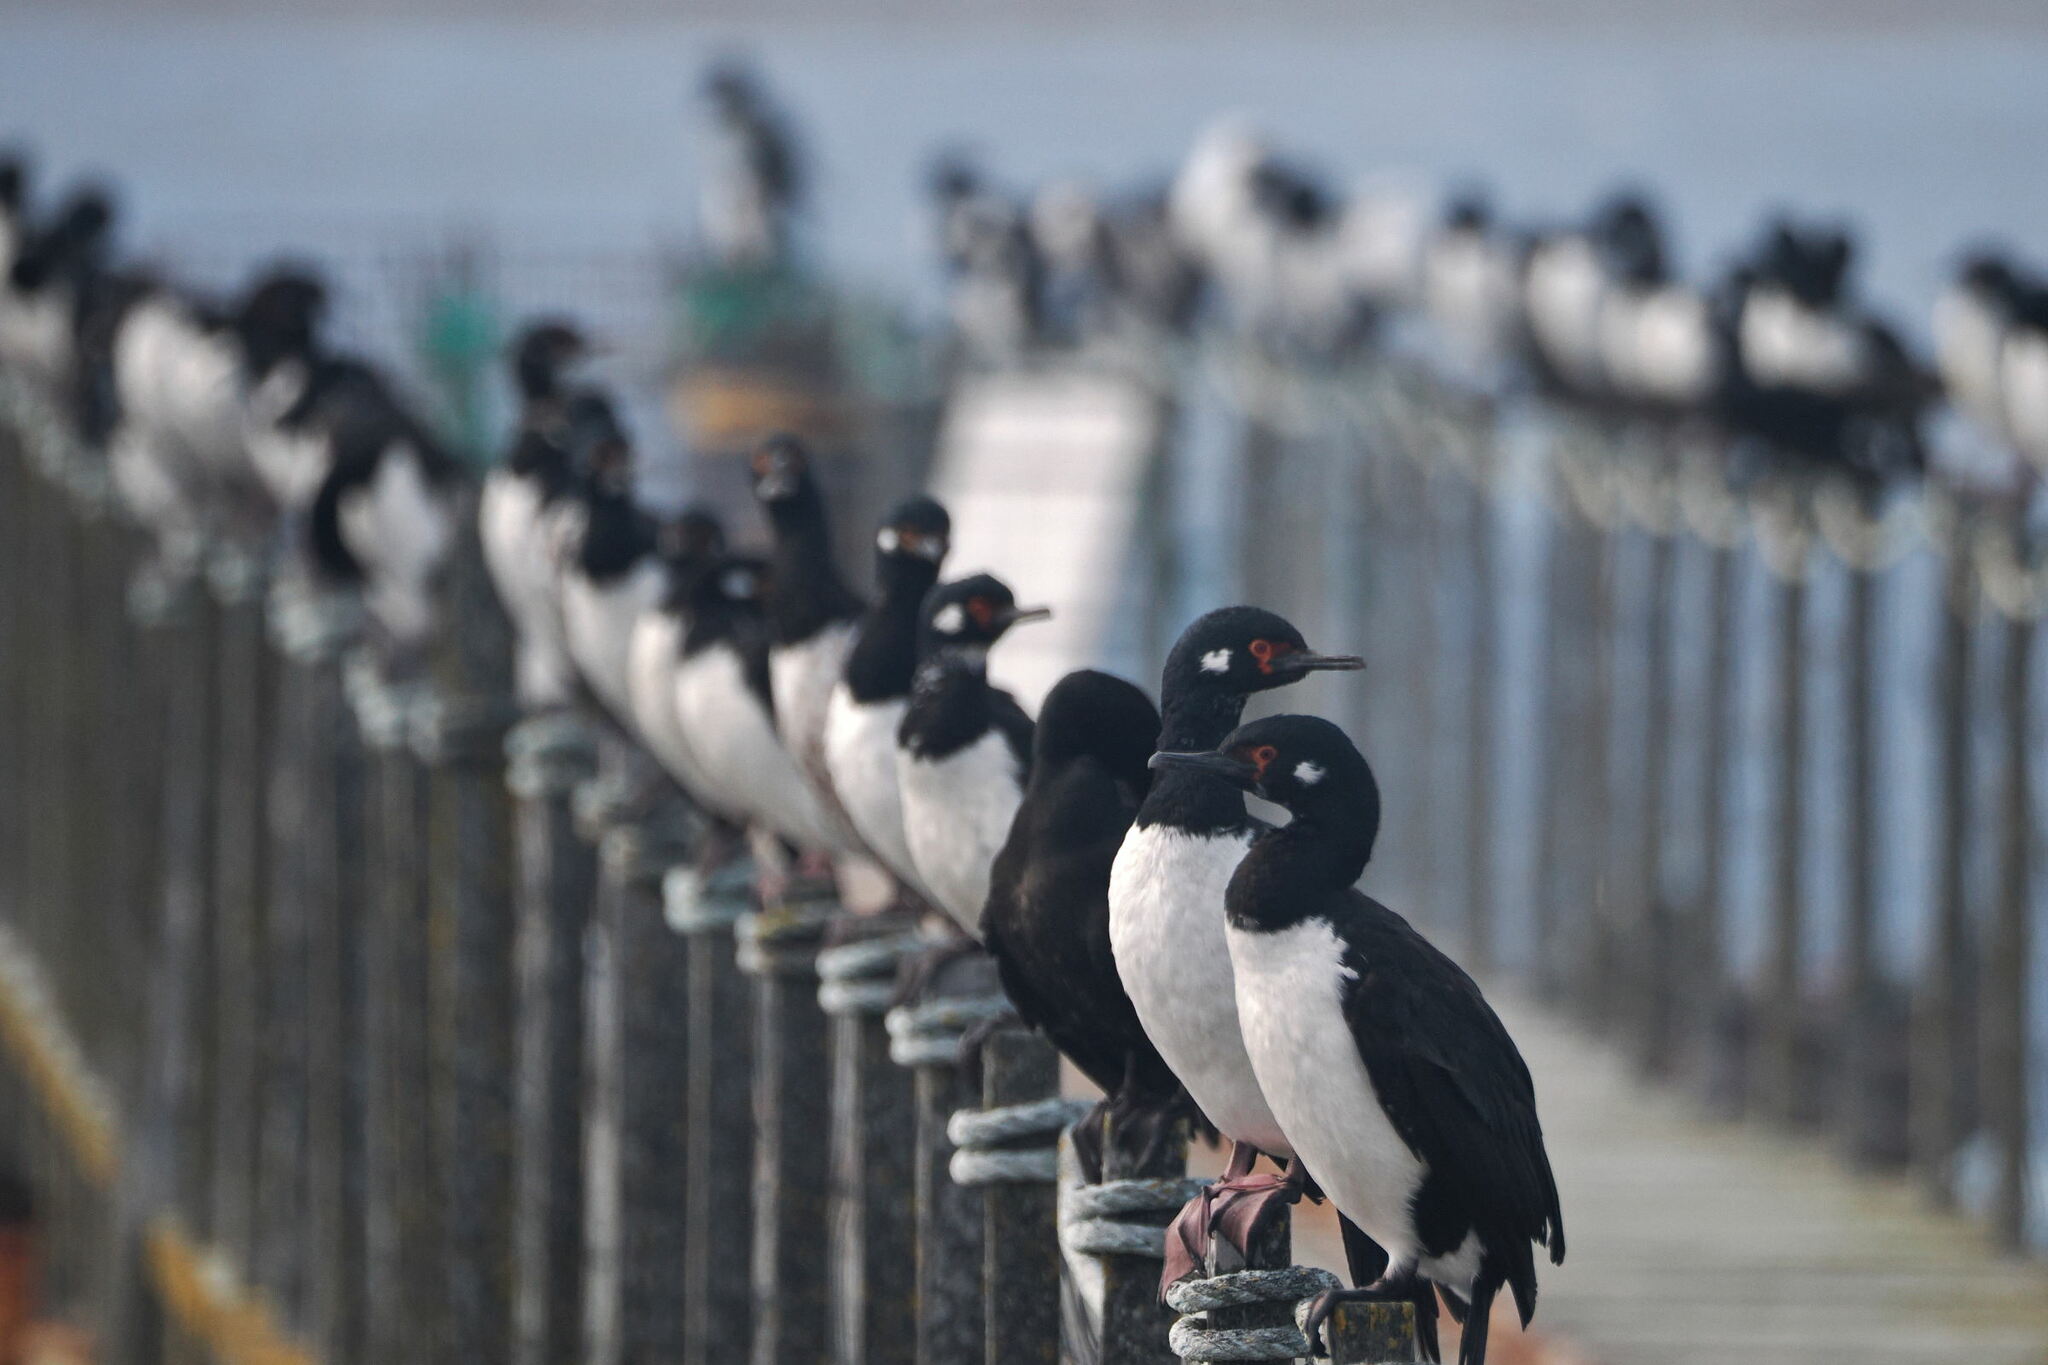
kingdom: Animalia
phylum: Chordata
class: Aves
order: Suliformes
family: Phalacrocoracidae
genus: Phalacrocorax
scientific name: Phalacrocorax magellanicus
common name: Rock shag
